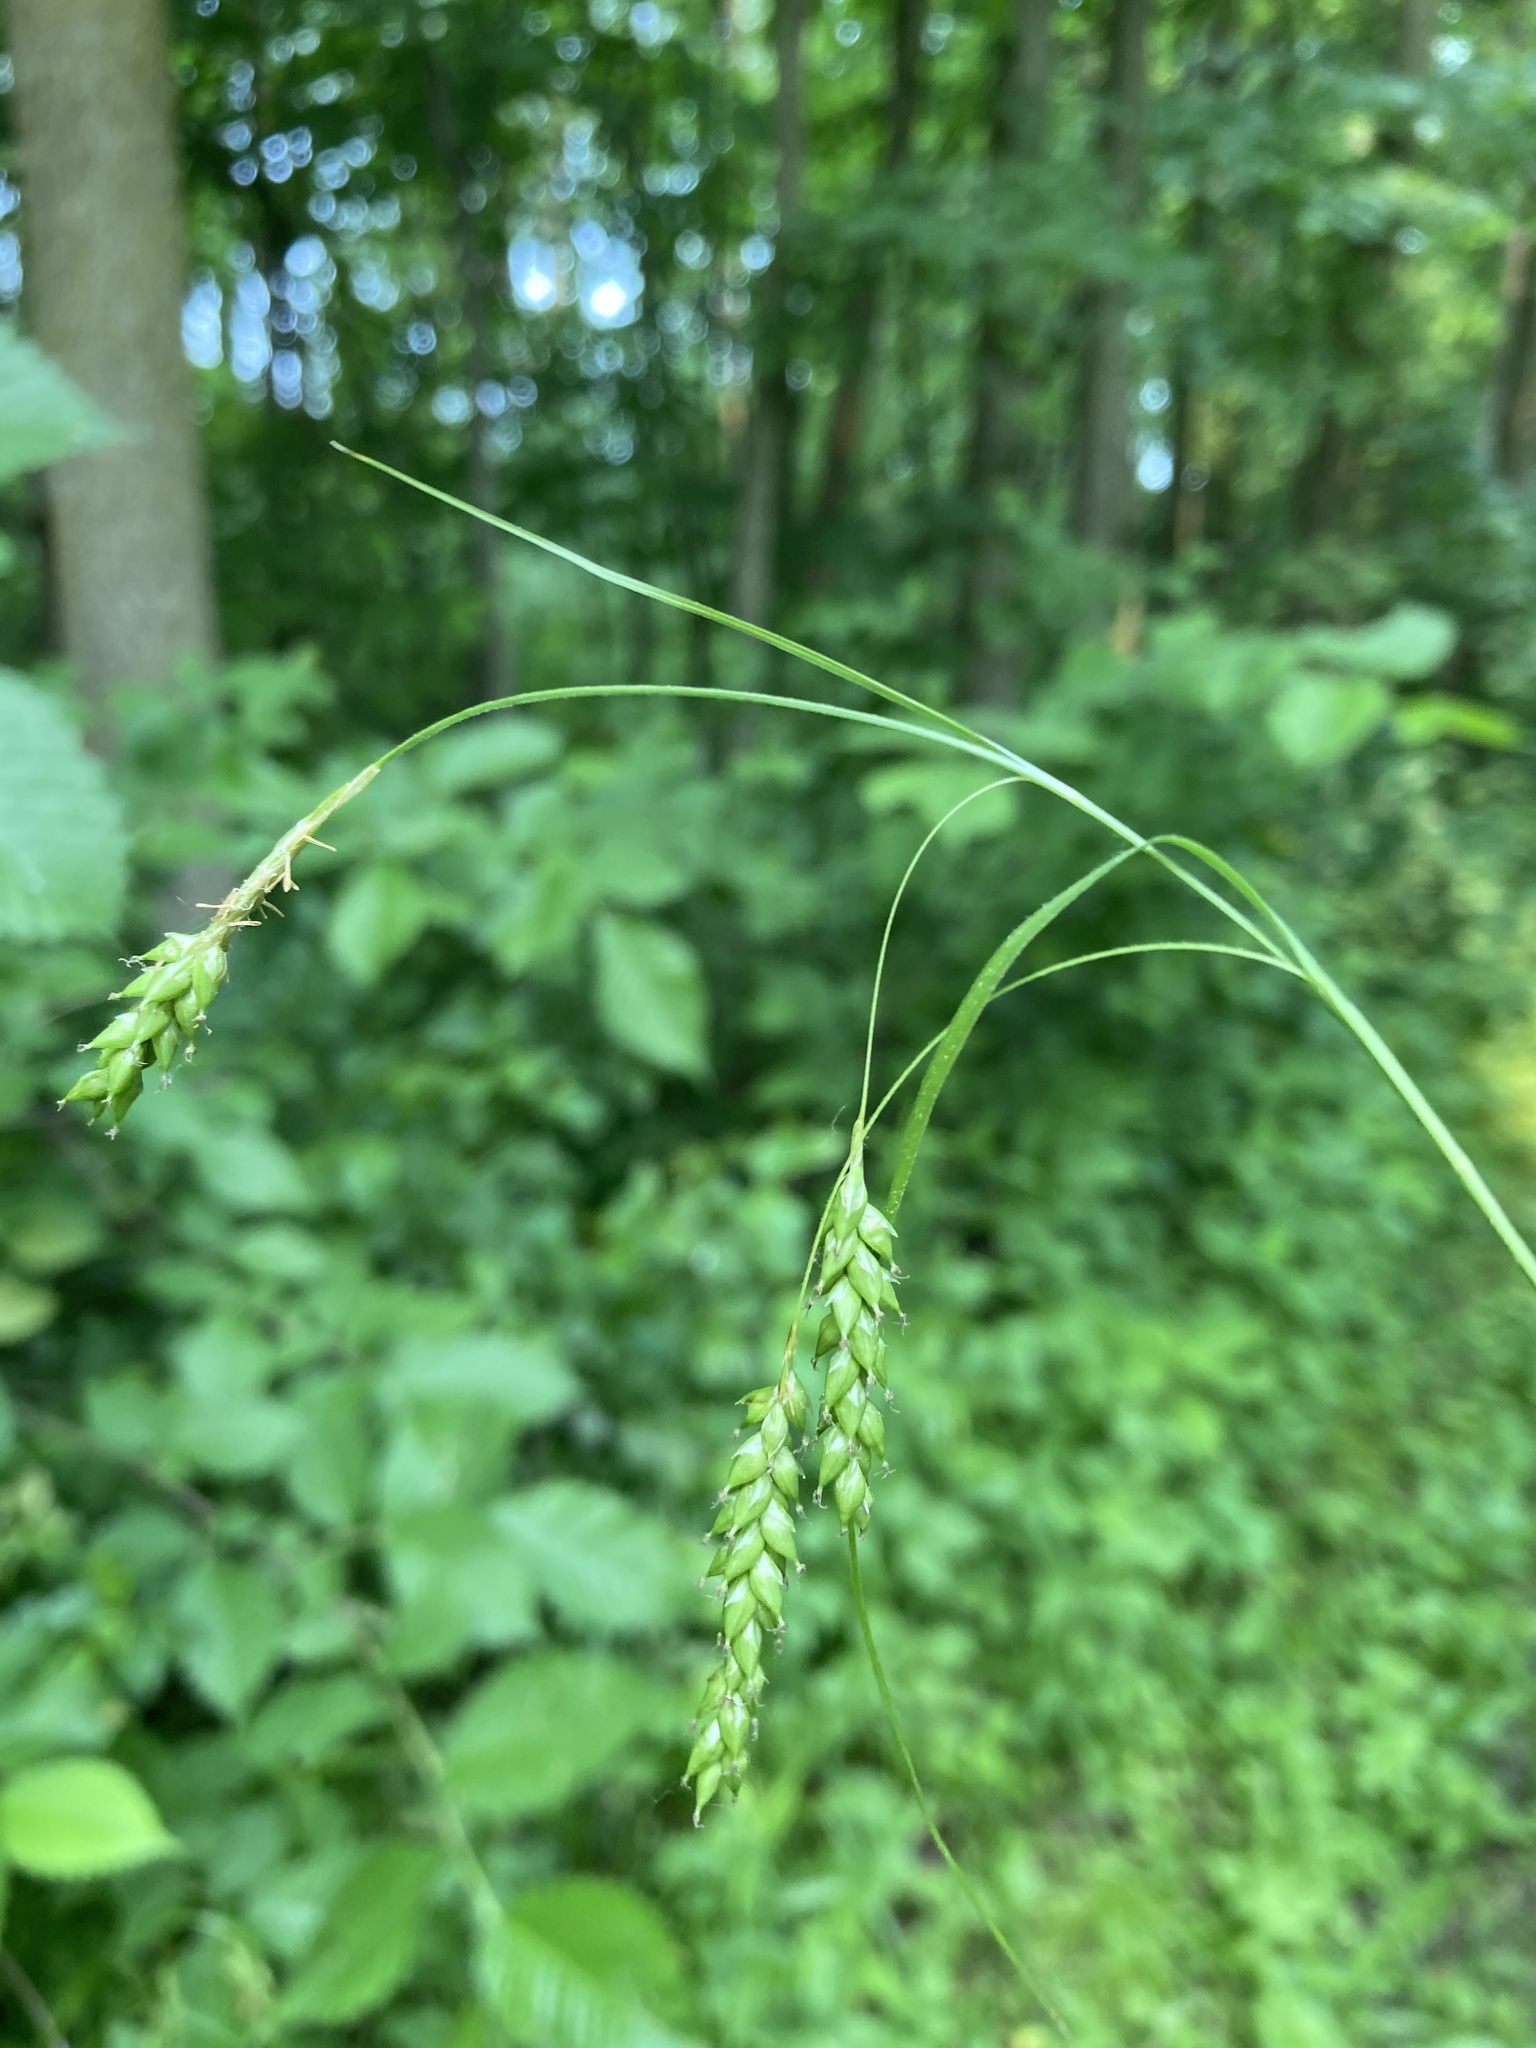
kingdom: Plantae
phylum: Tracheophyta
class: Liliopsida
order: Poales
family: Cyperaceae
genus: Carex
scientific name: Carex formosa
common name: Awnless graceful sedge
